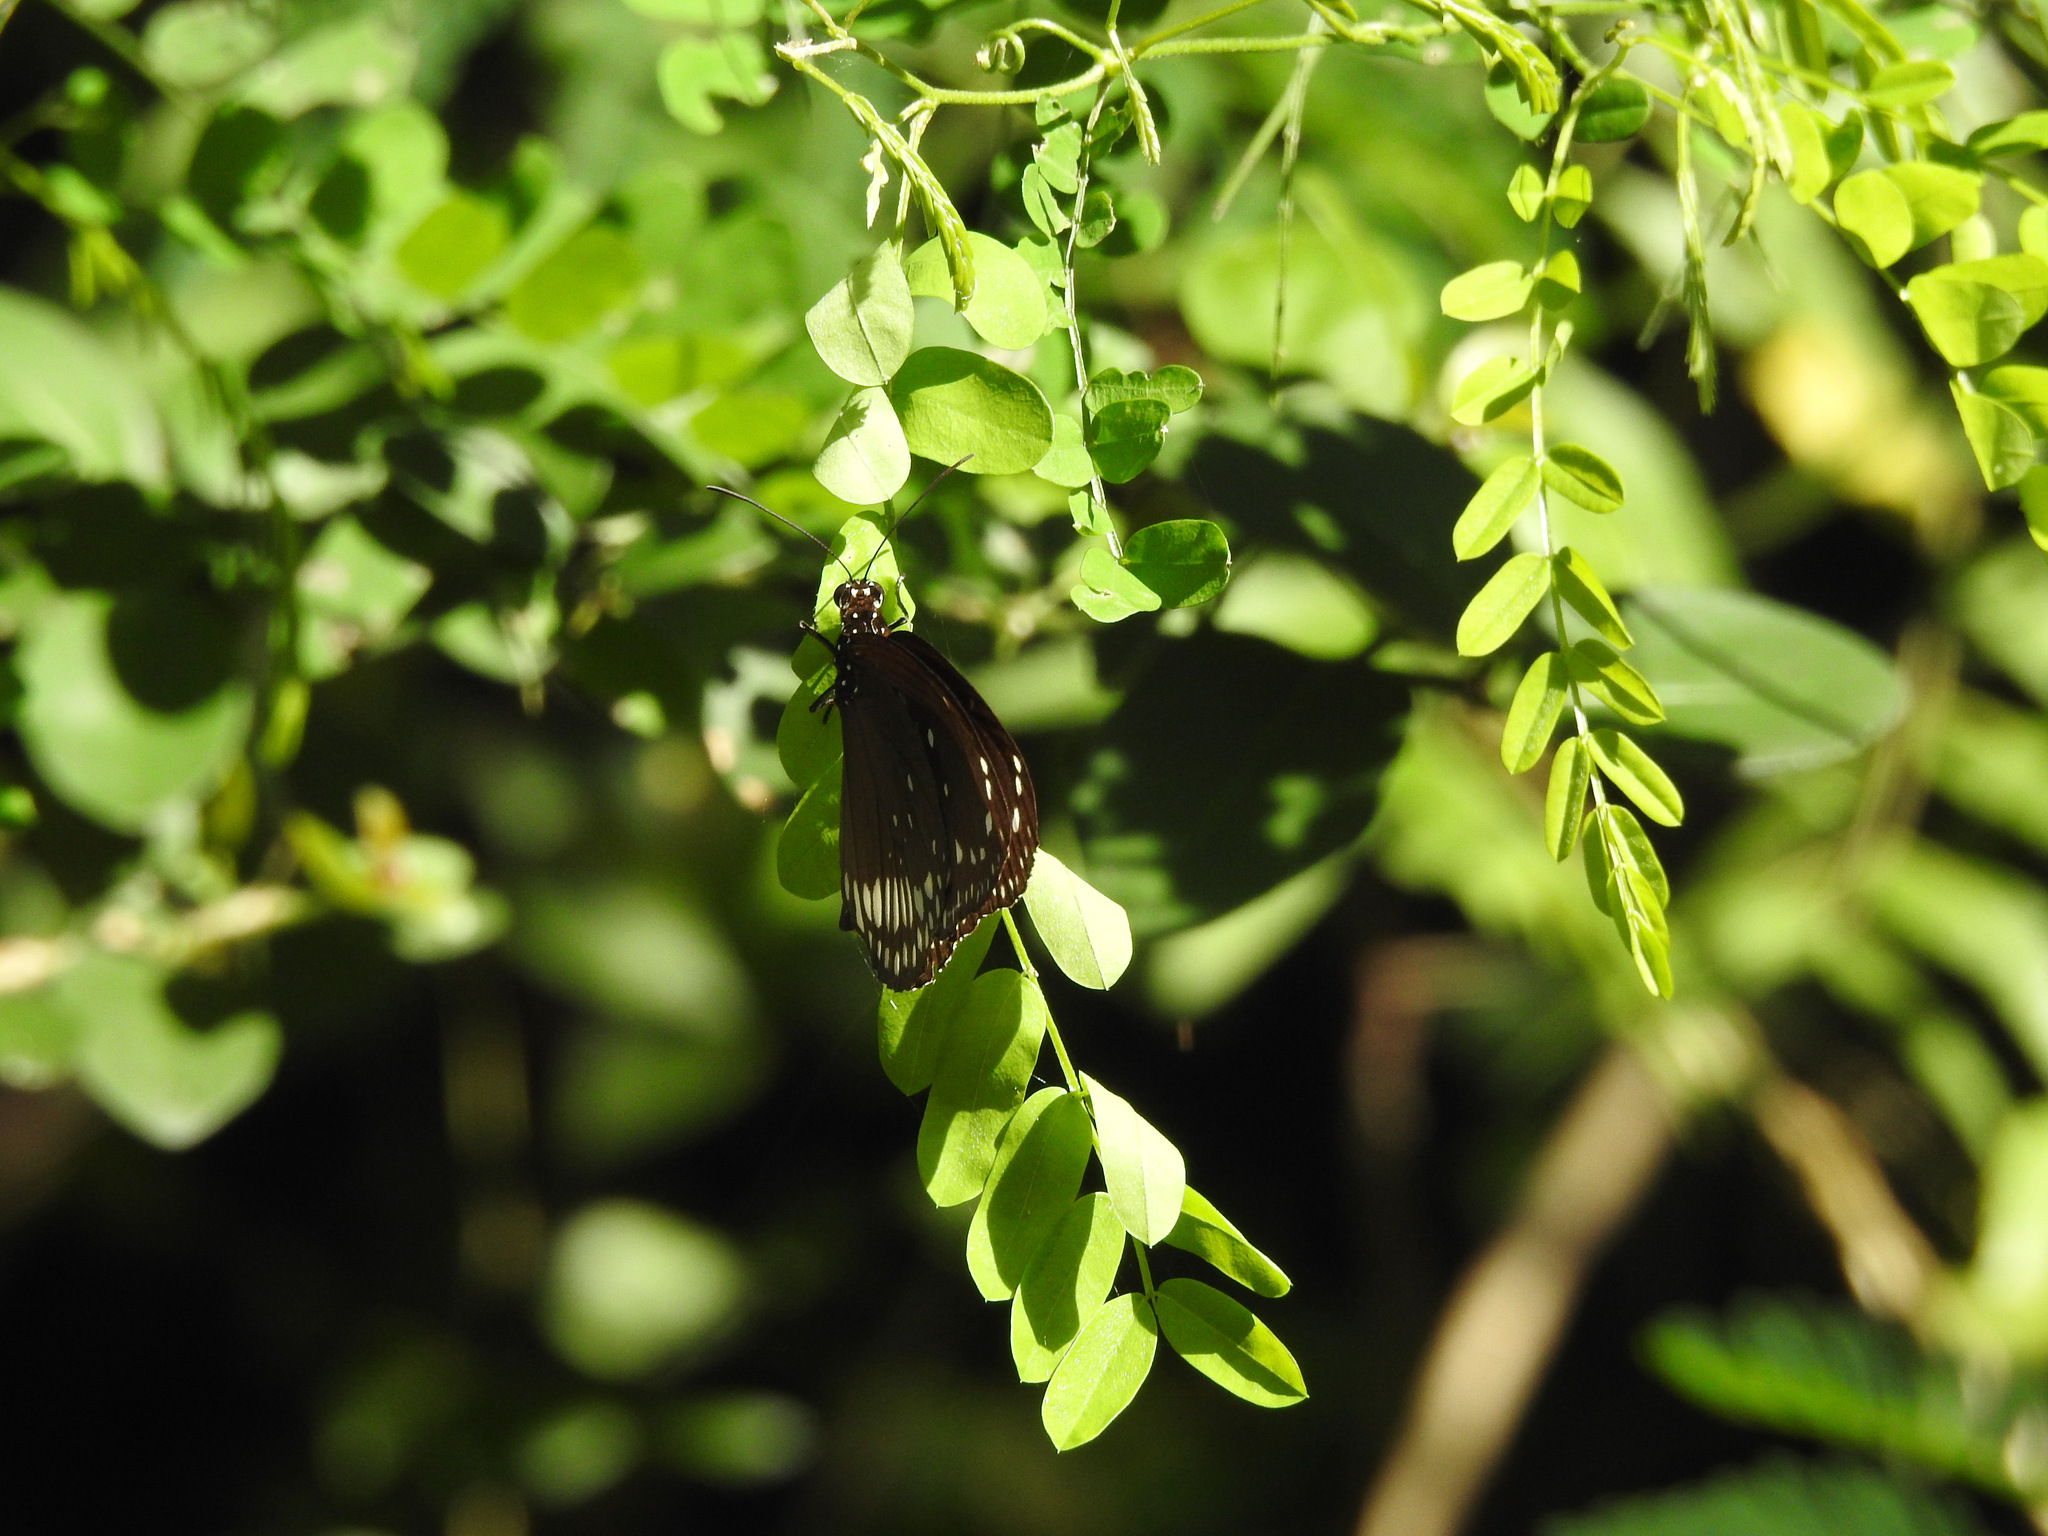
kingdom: Animalia
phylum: Arthropoda
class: Insecta
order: Lepidoptera
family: Nymphalidae
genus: Euploea
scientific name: Euploea core
